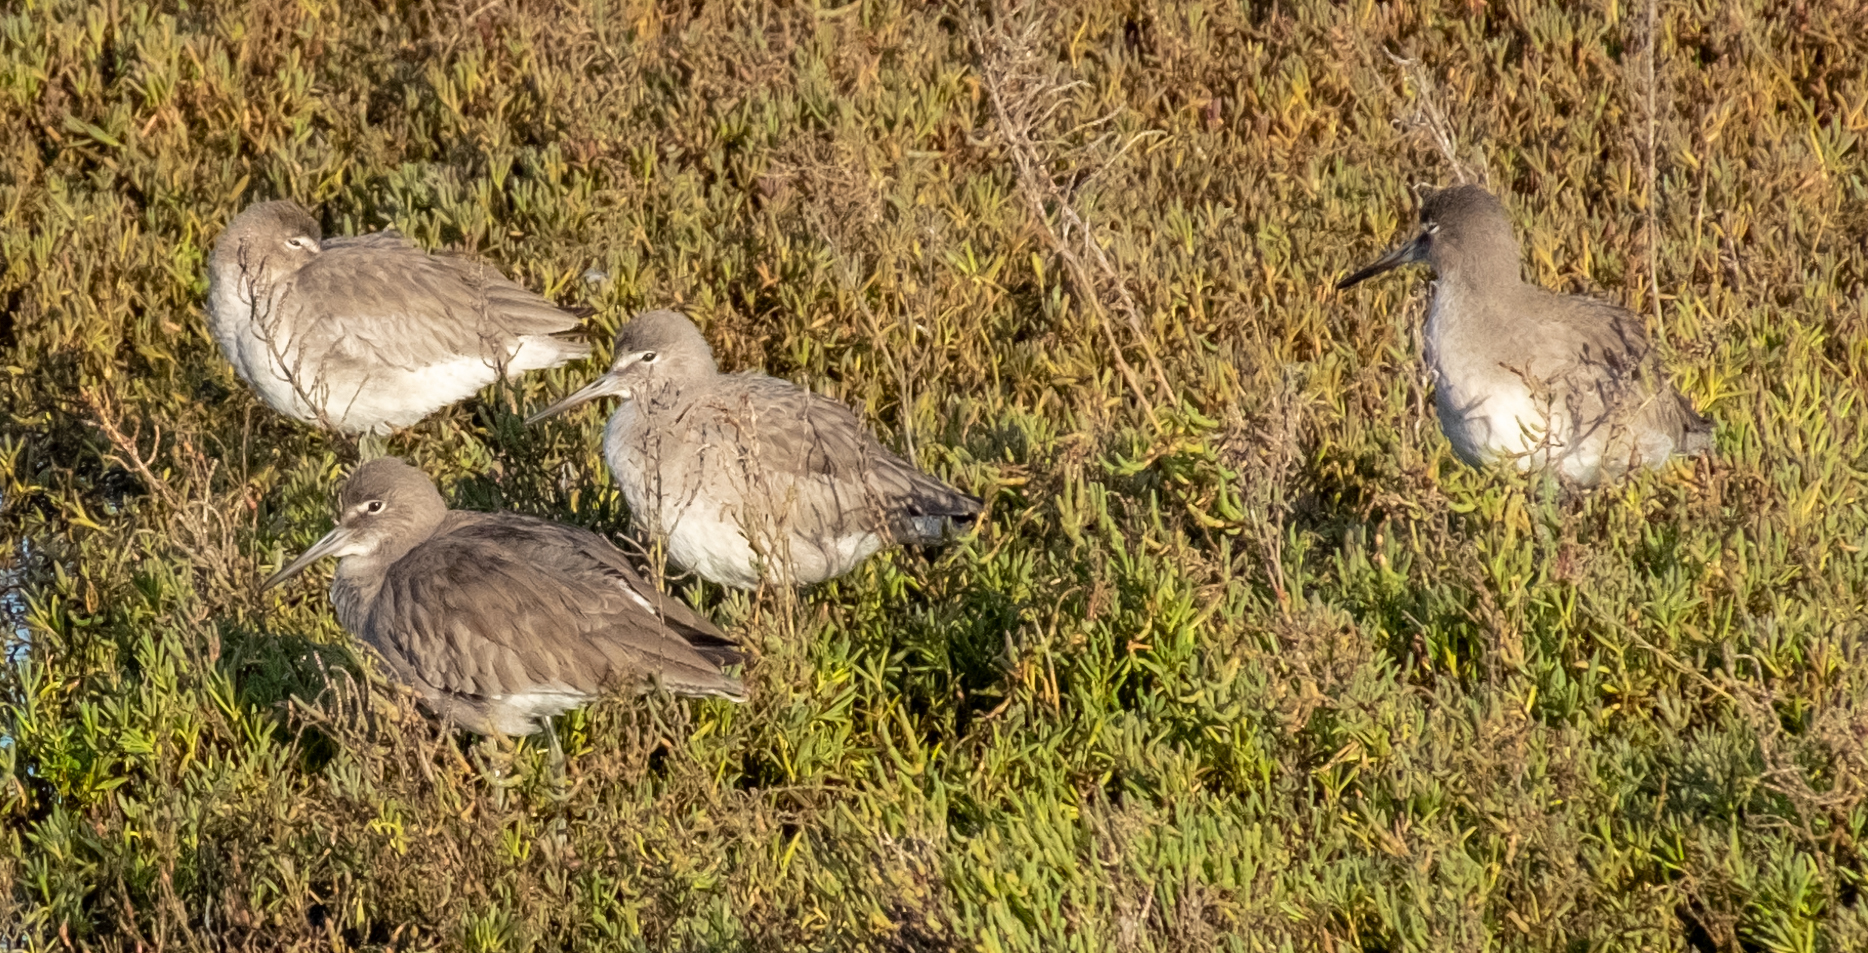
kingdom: Animalia
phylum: Chordata
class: Aves
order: Charadriiformes
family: Scolopacidae
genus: Tringa
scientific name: Tringa semipalmata
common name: Willet
